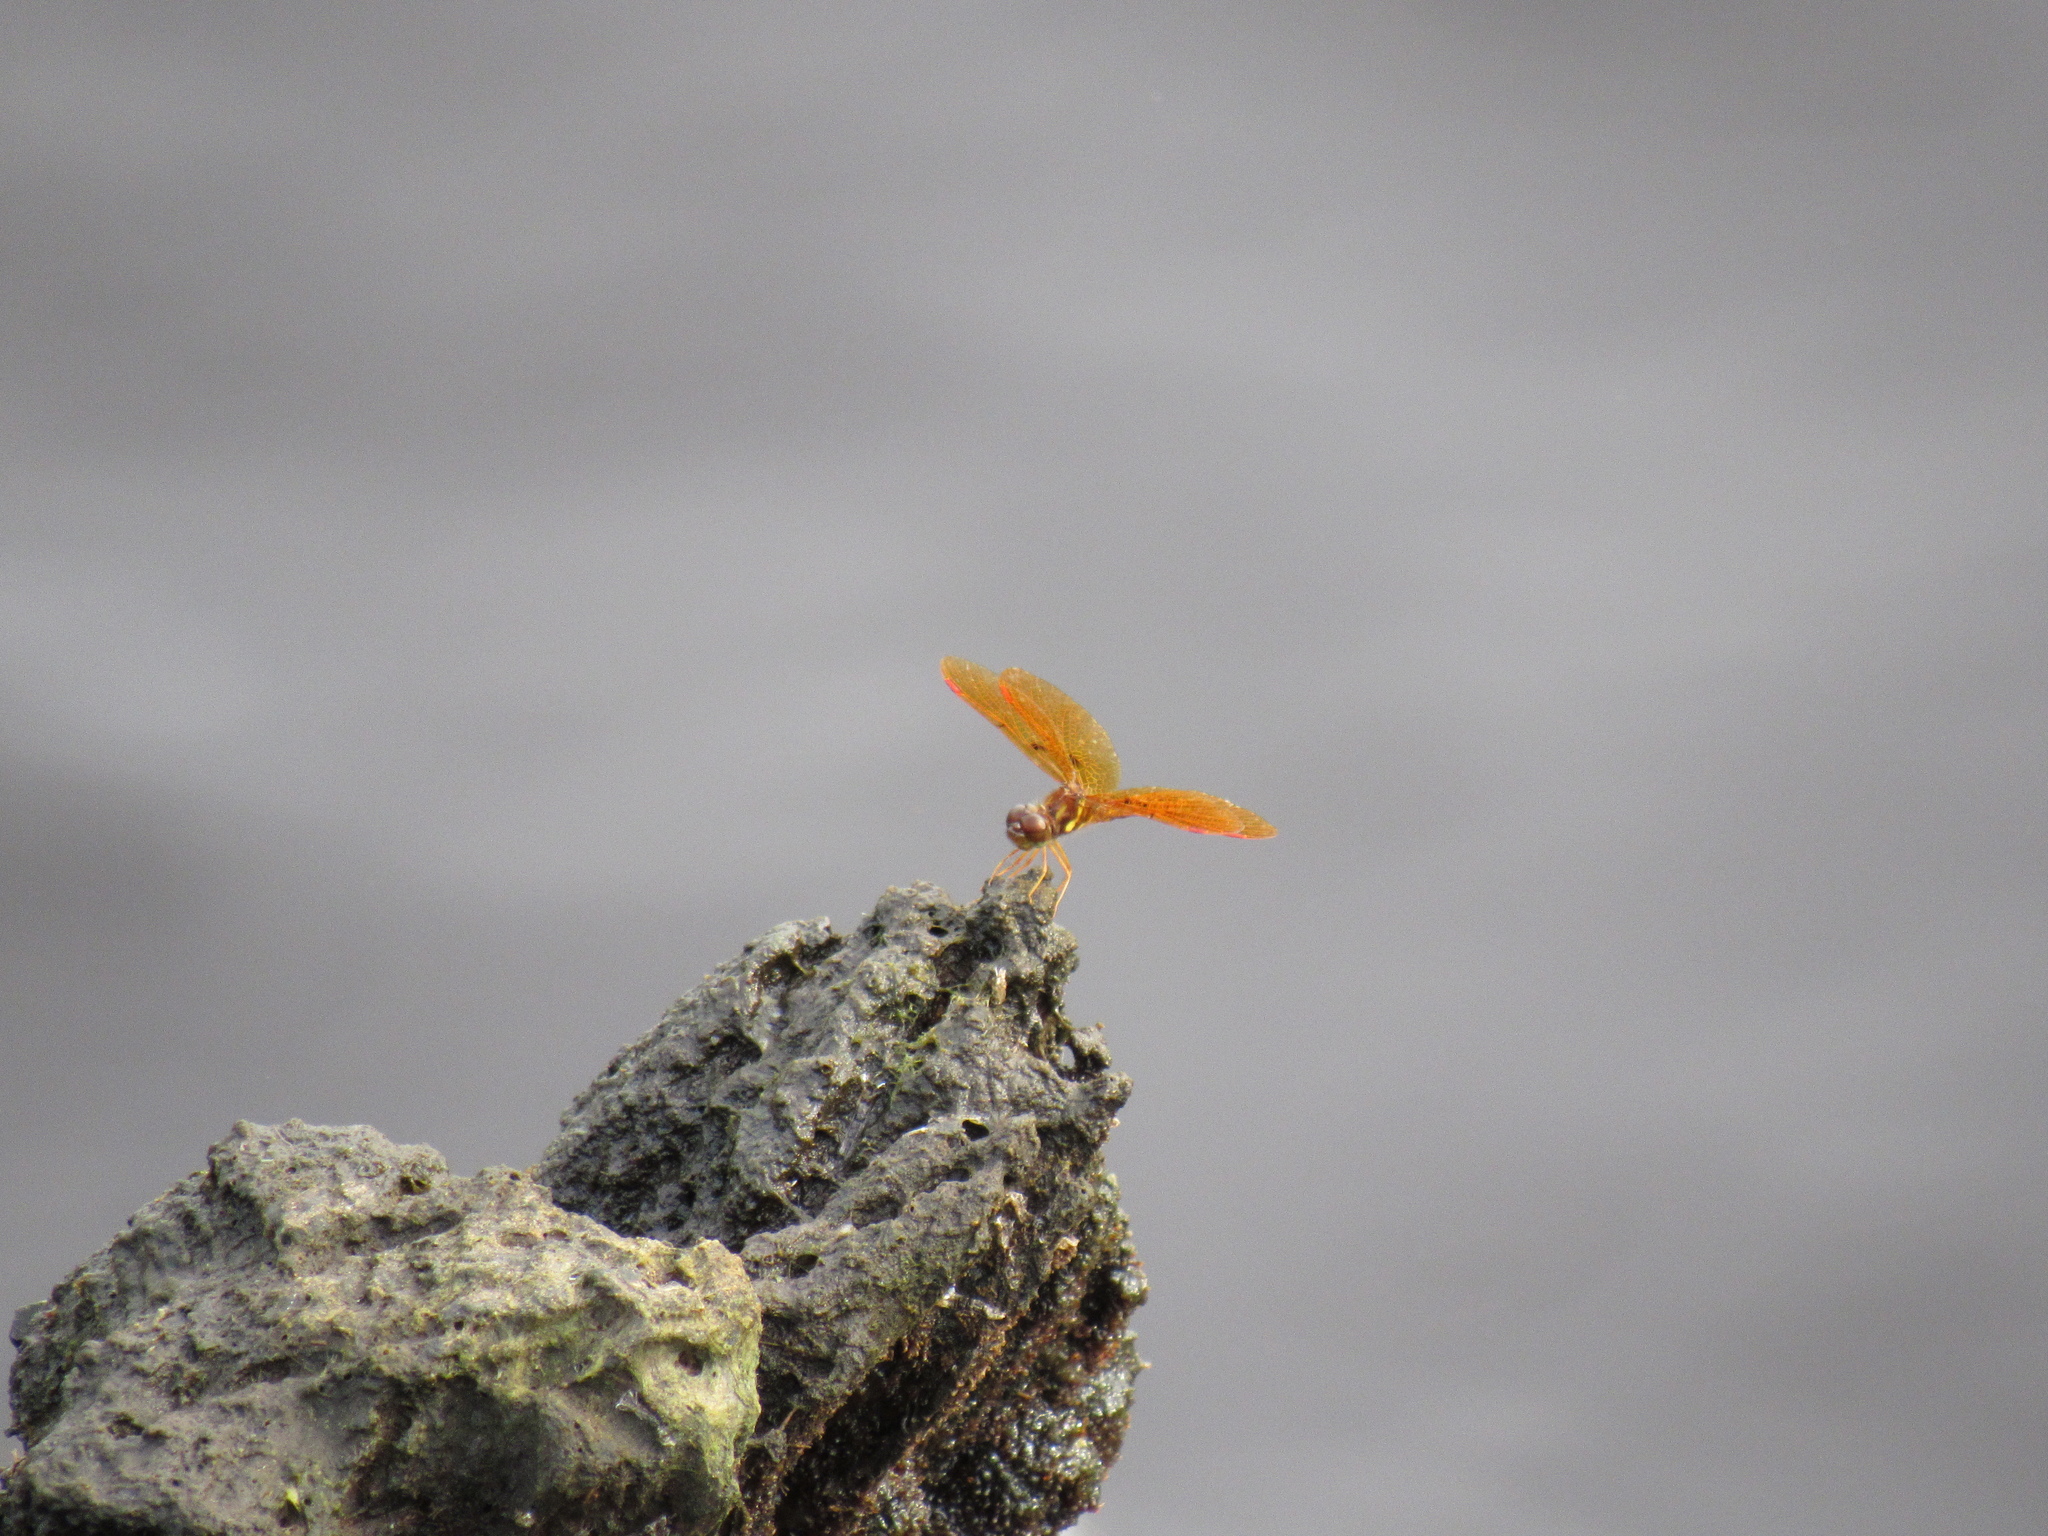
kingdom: Animalia
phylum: Arthropoda
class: Insecta
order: Odonata
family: Libellulidae
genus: Perithemis
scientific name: Perithemis tenera
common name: Eastern amberwing
